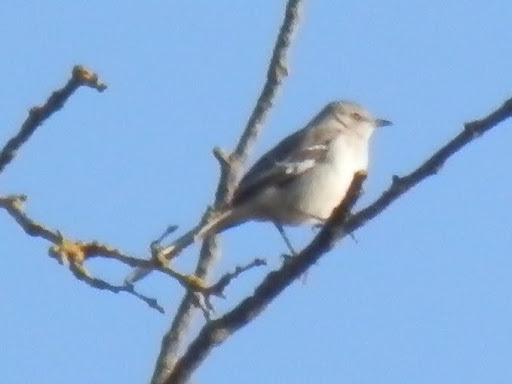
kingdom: Animalia
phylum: Chordata
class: Aves
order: Passeriformes
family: Mimidae
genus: Mimus
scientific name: Mimus polyglottos
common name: Northern mockingbird
